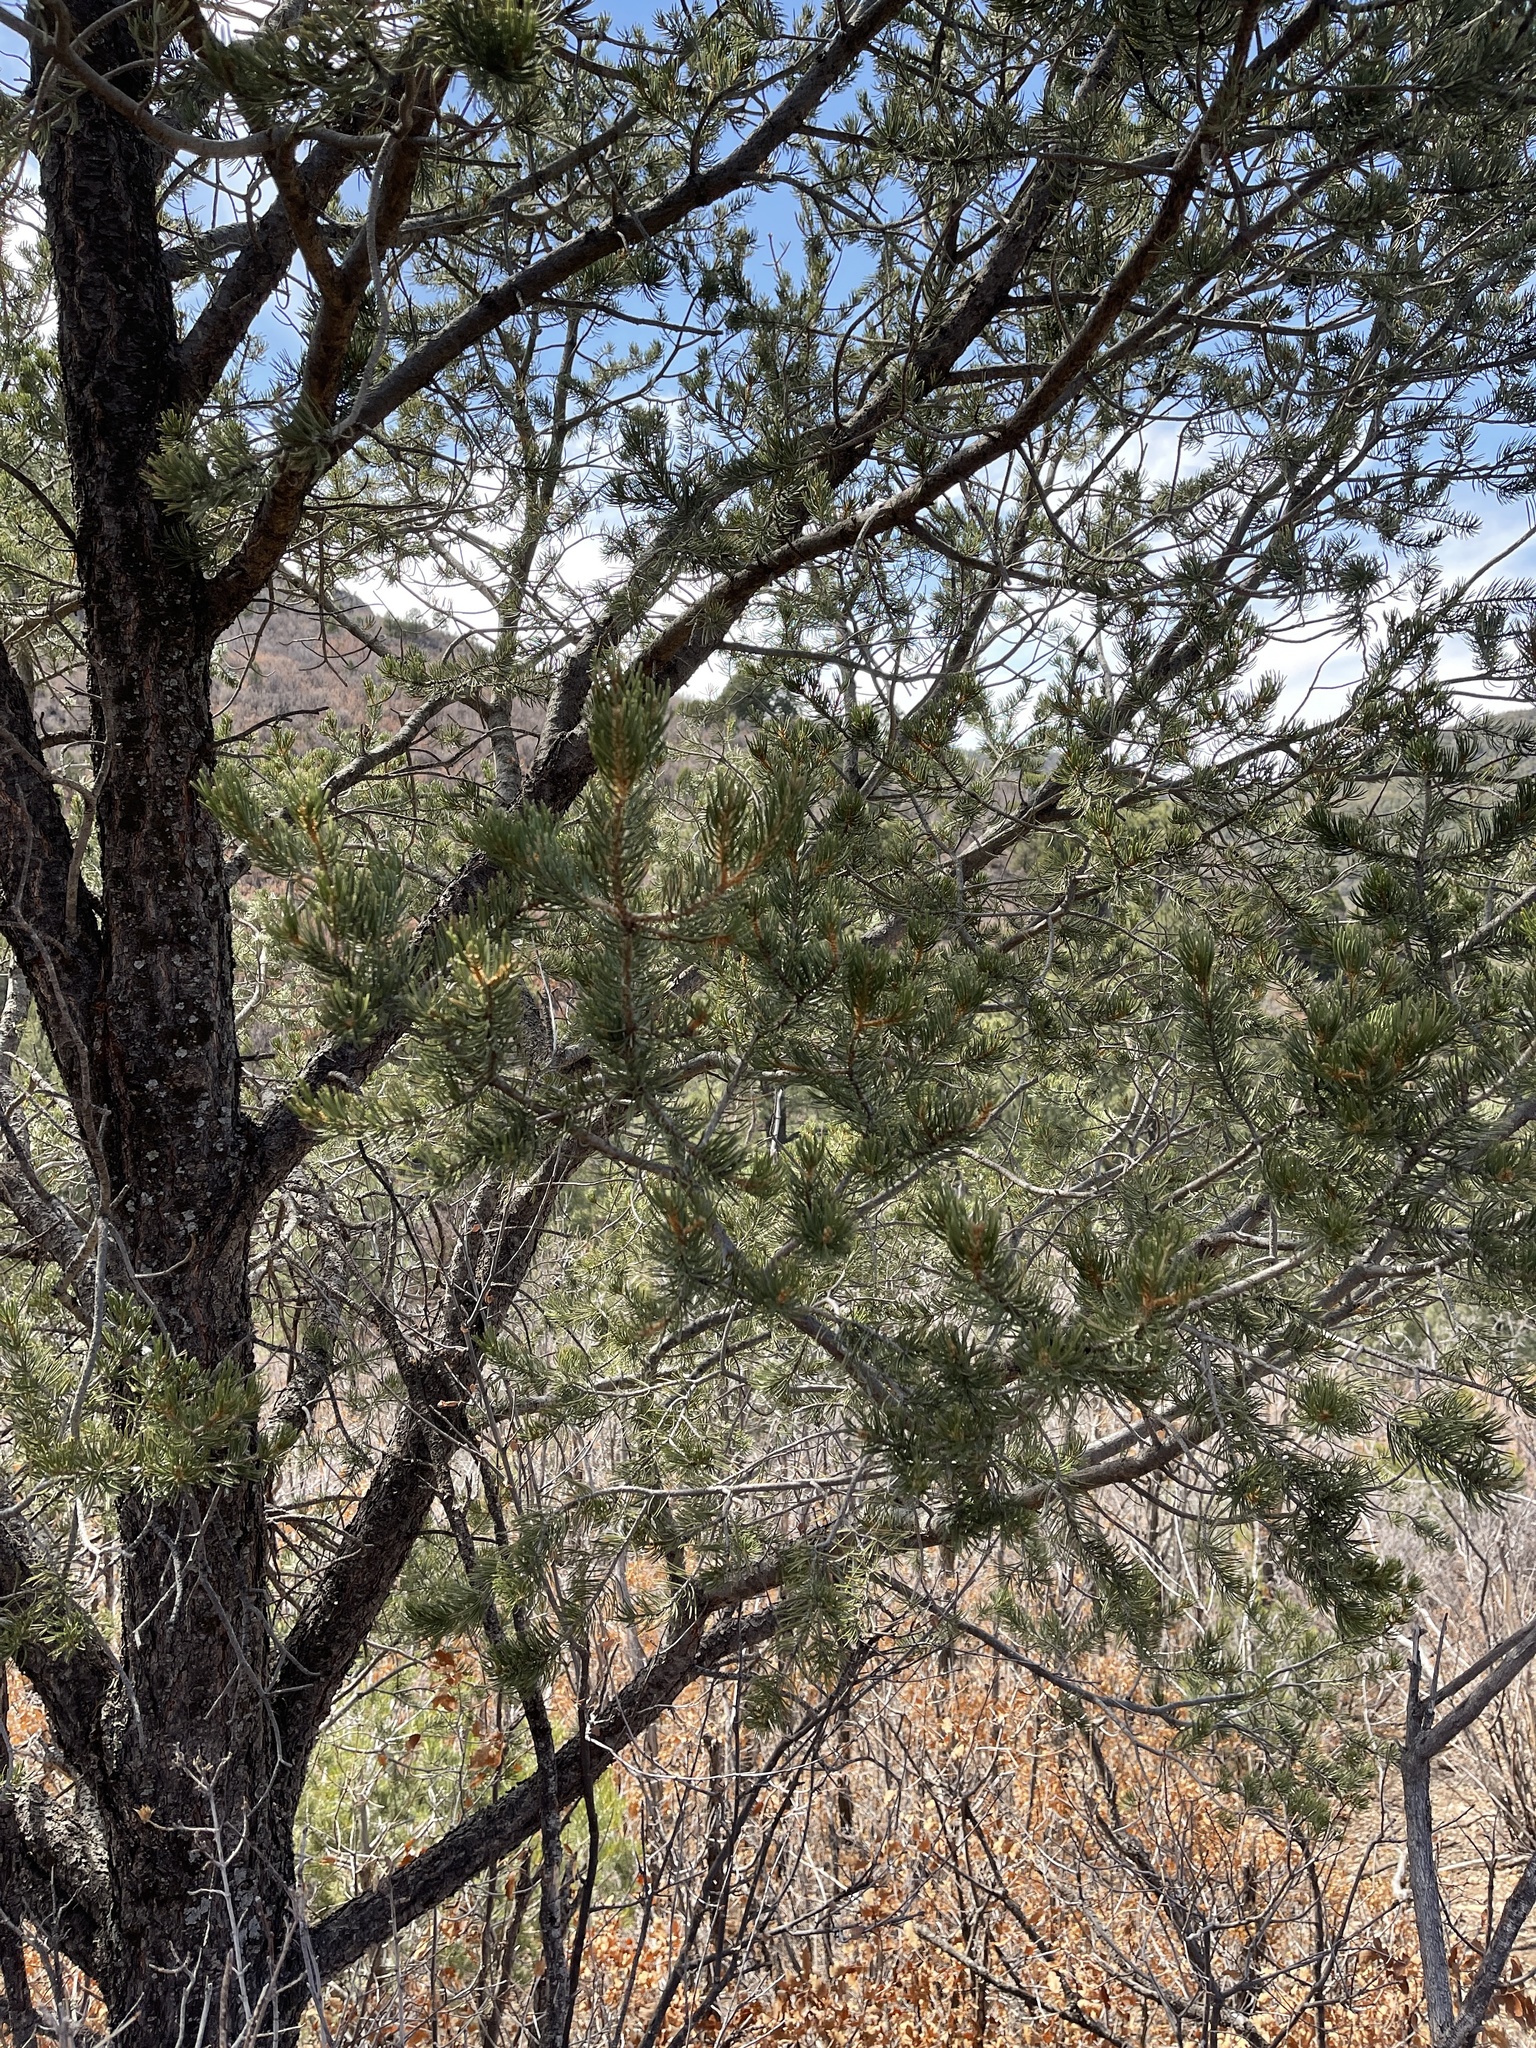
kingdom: Plantae
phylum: Tracheophyta
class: Pinopsida
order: Pinales
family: Pinaceae
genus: Pinus
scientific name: Pinus edulis
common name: Colorado pinyon
